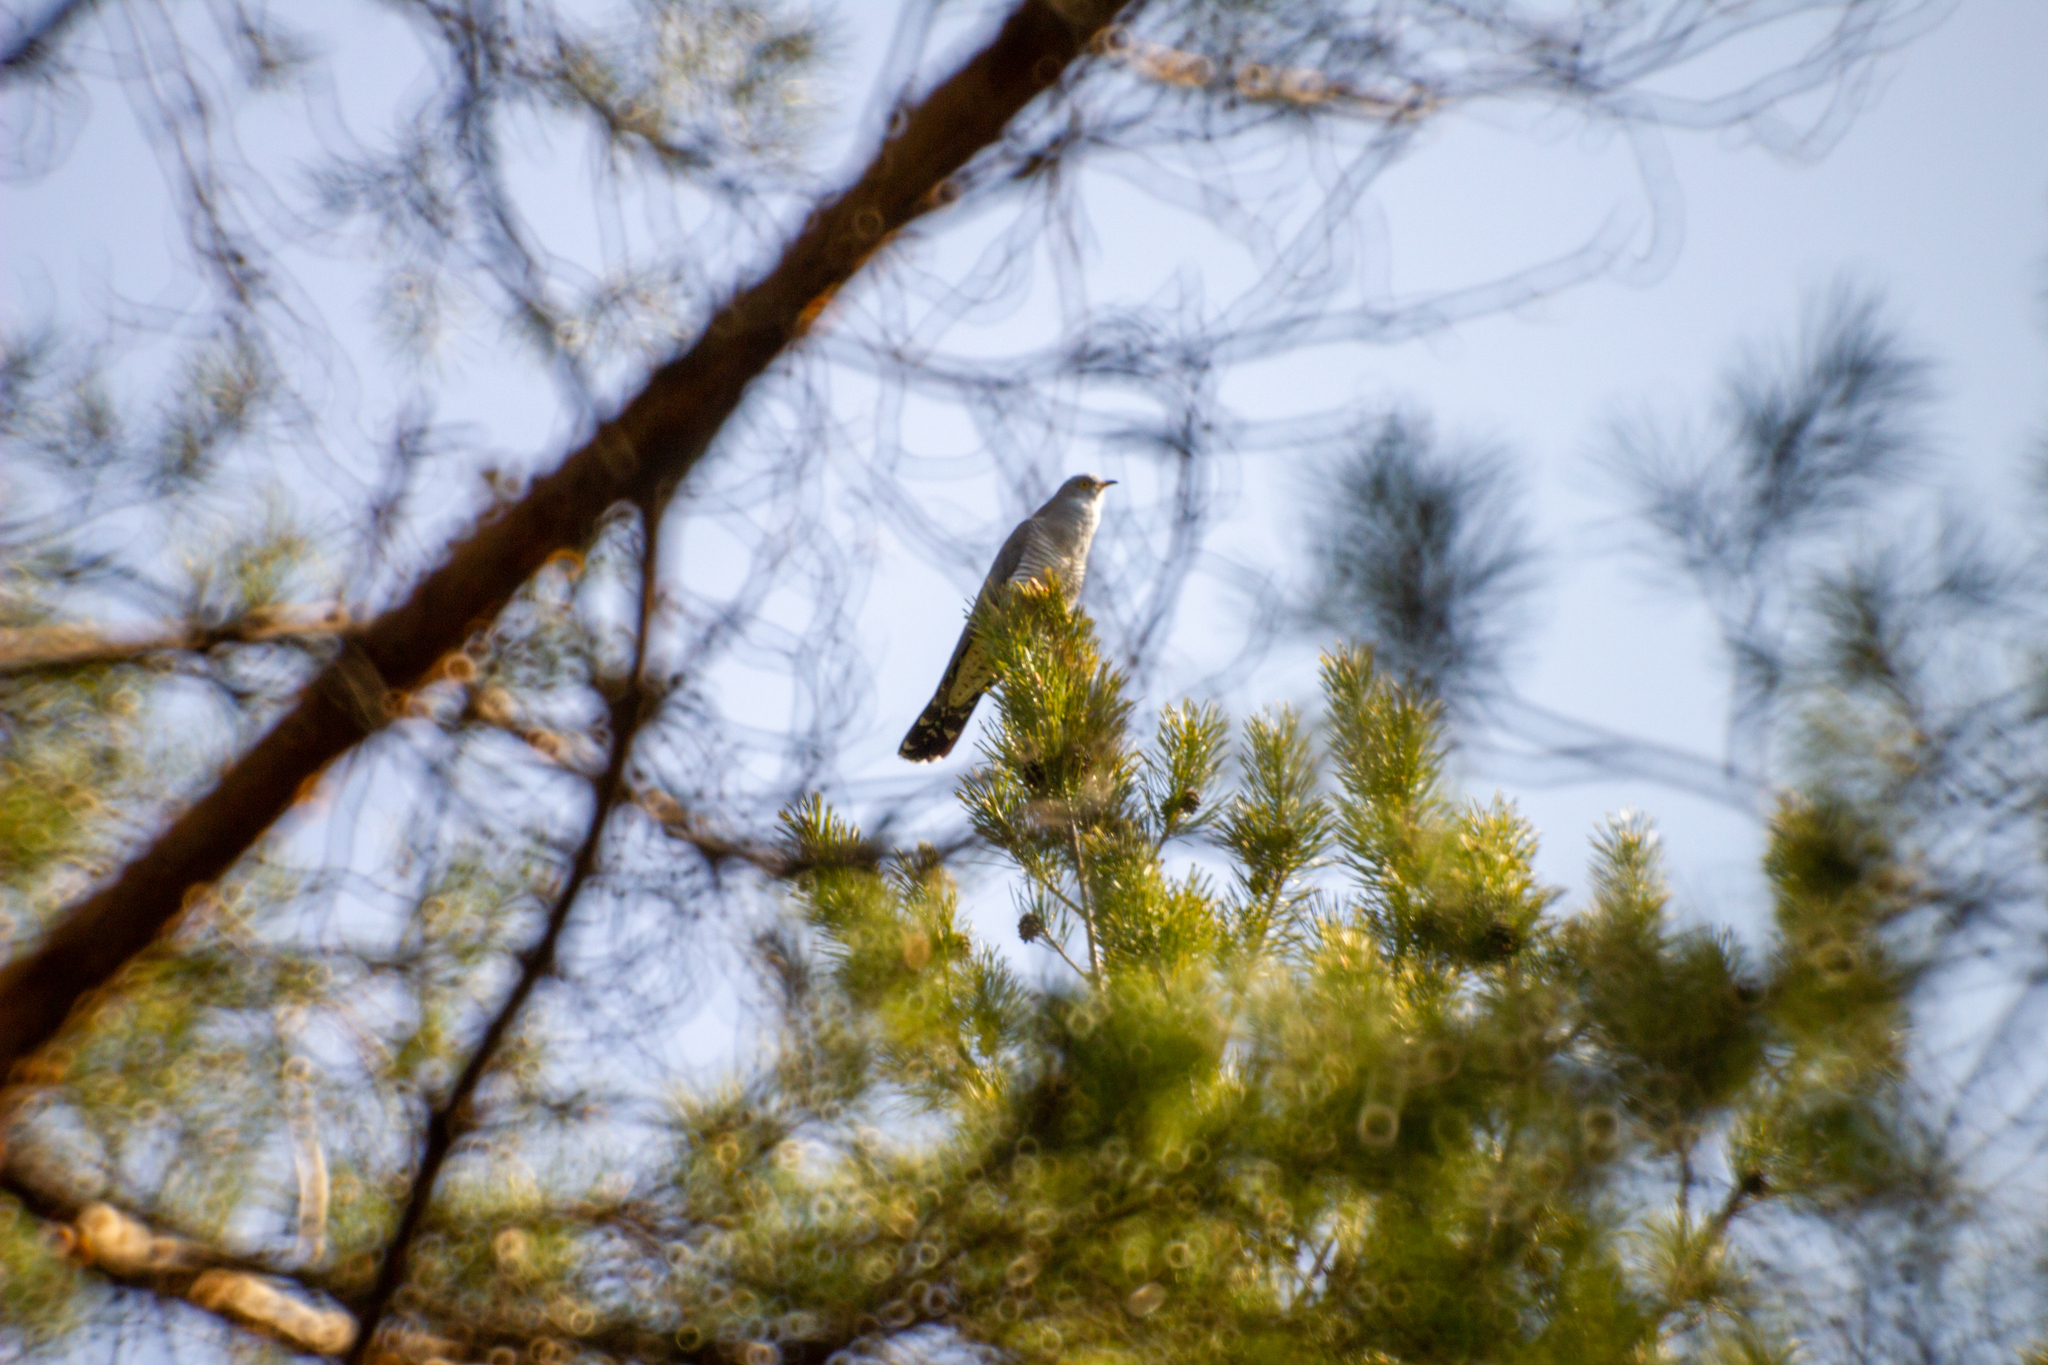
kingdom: Animalia
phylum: Chordata
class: Aves
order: Cuculiformes
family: Cuculidae
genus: Cuculus
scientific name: Cuculus canorus
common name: Common cuckoo
